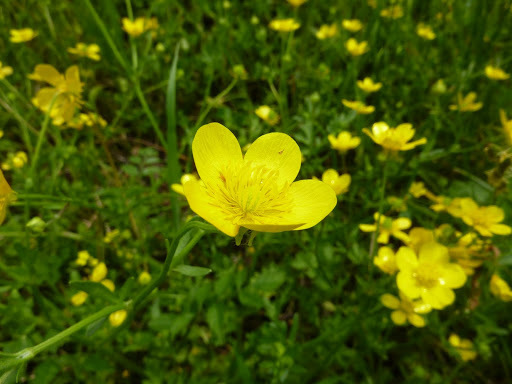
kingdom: Plantae
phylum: Tracheophyta
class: Magnoliopsida
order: Ranunculales
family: Ranunculaceae
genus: Ranunculus
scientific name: Ranunculus acris
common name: Meadow buttercup
